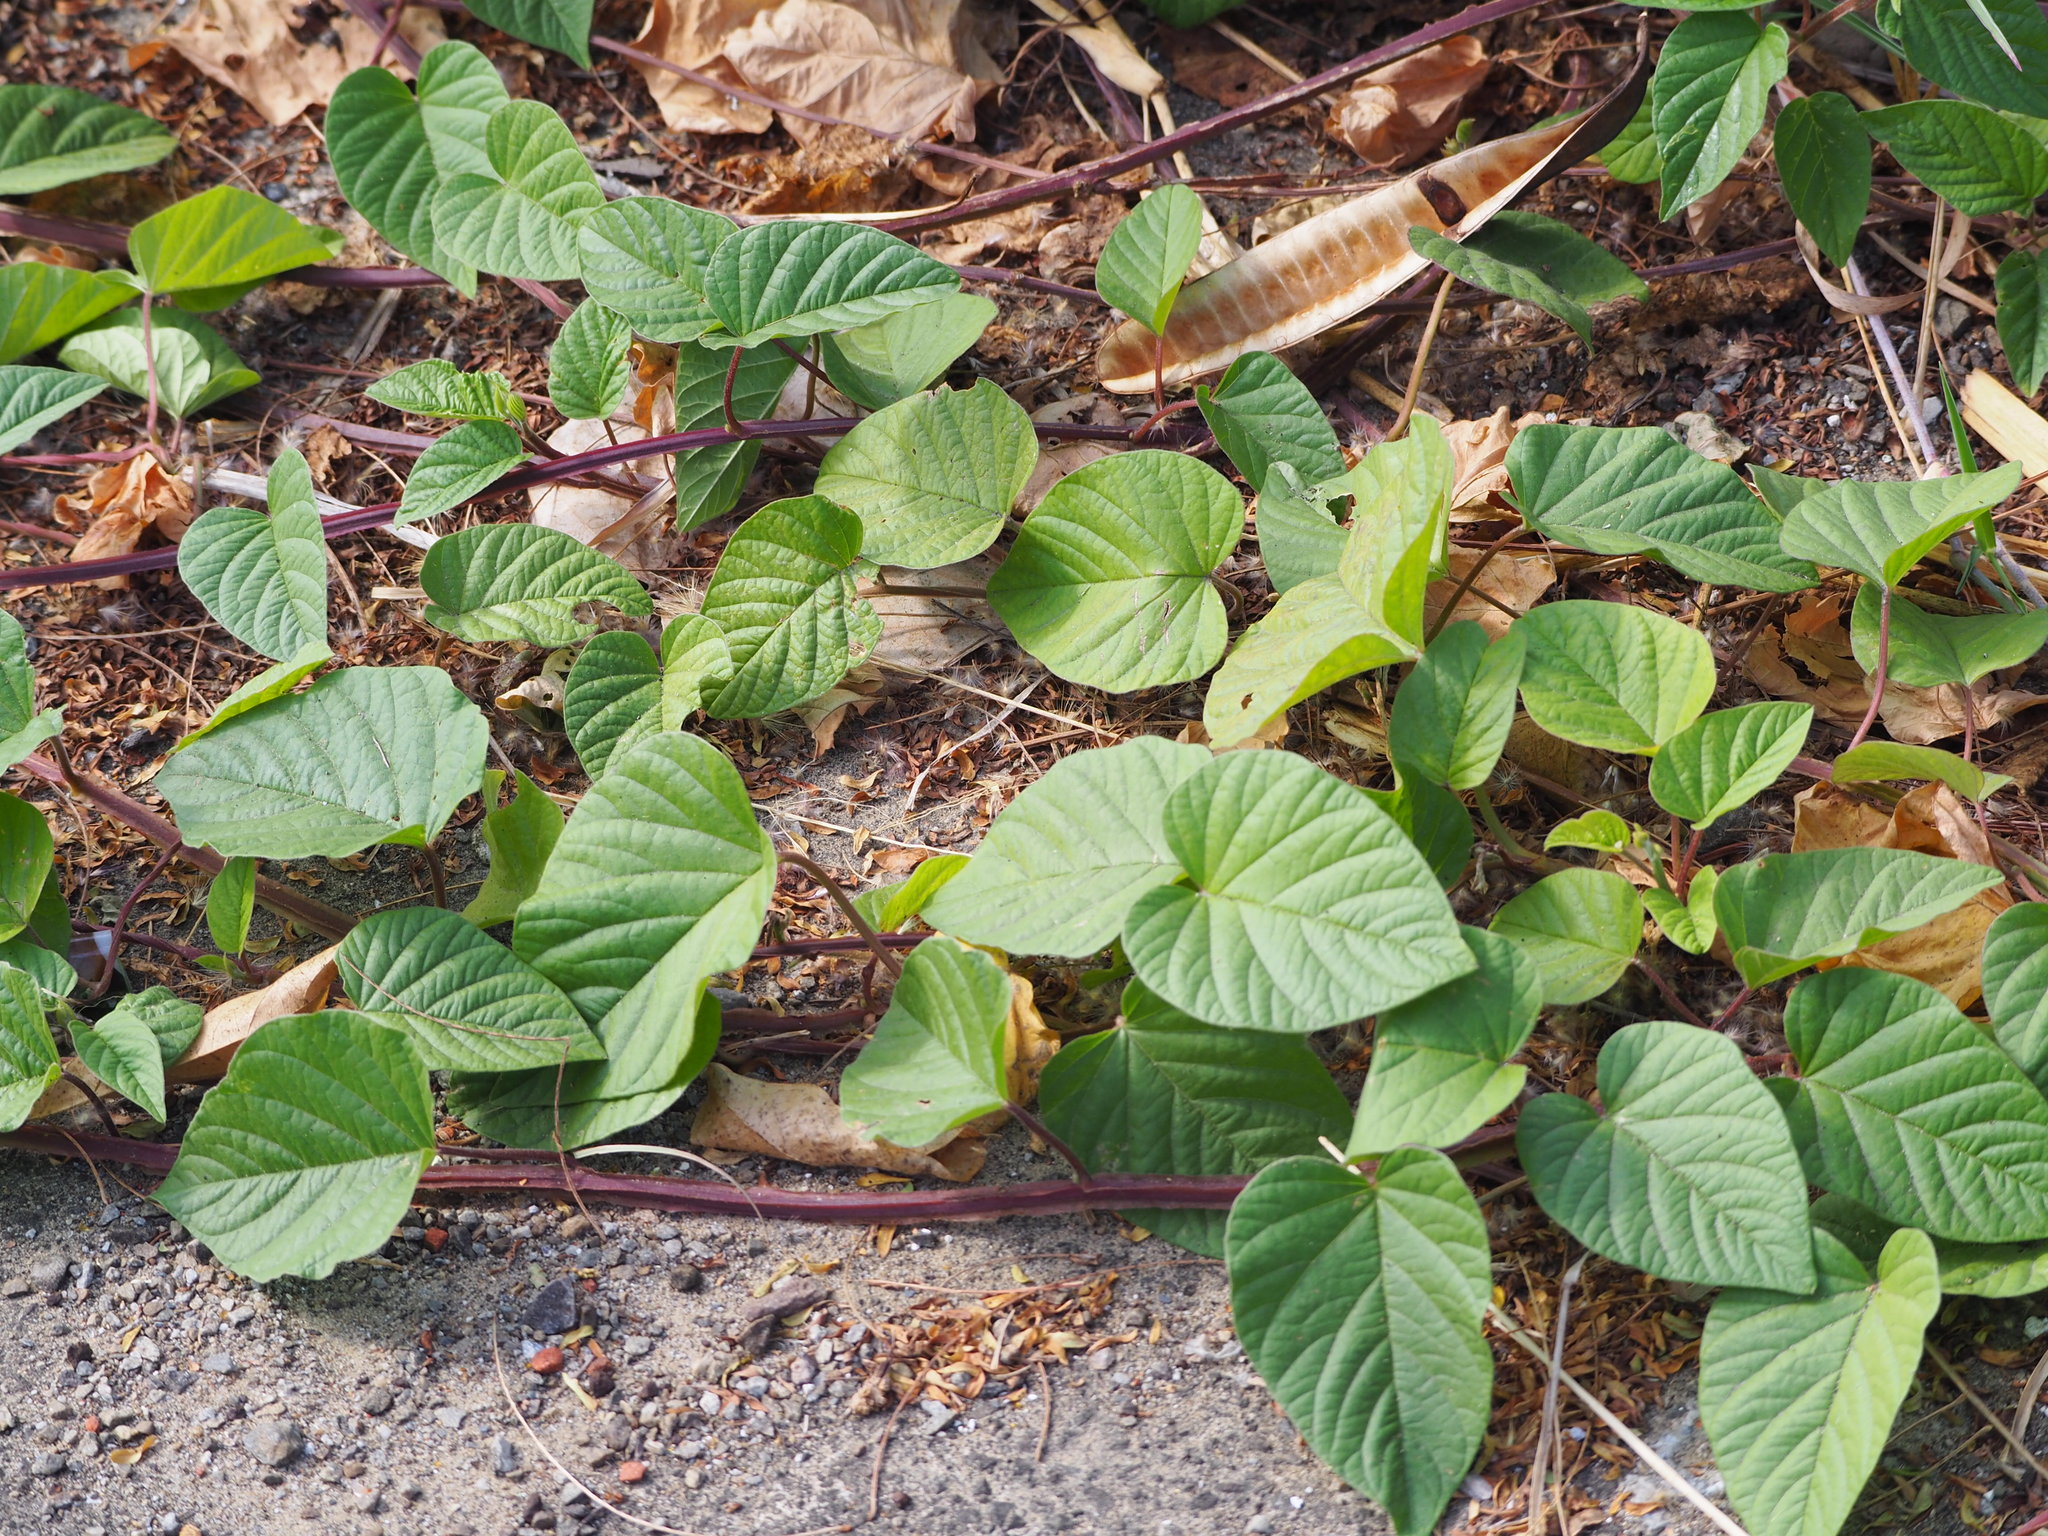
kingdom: Plantae
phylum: Tracheophyta
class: Magnoliopsida
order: Solanales
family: Convolvulaceae
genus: Operculina
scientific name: Operculina turpethum
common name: Transparent wood-rose
